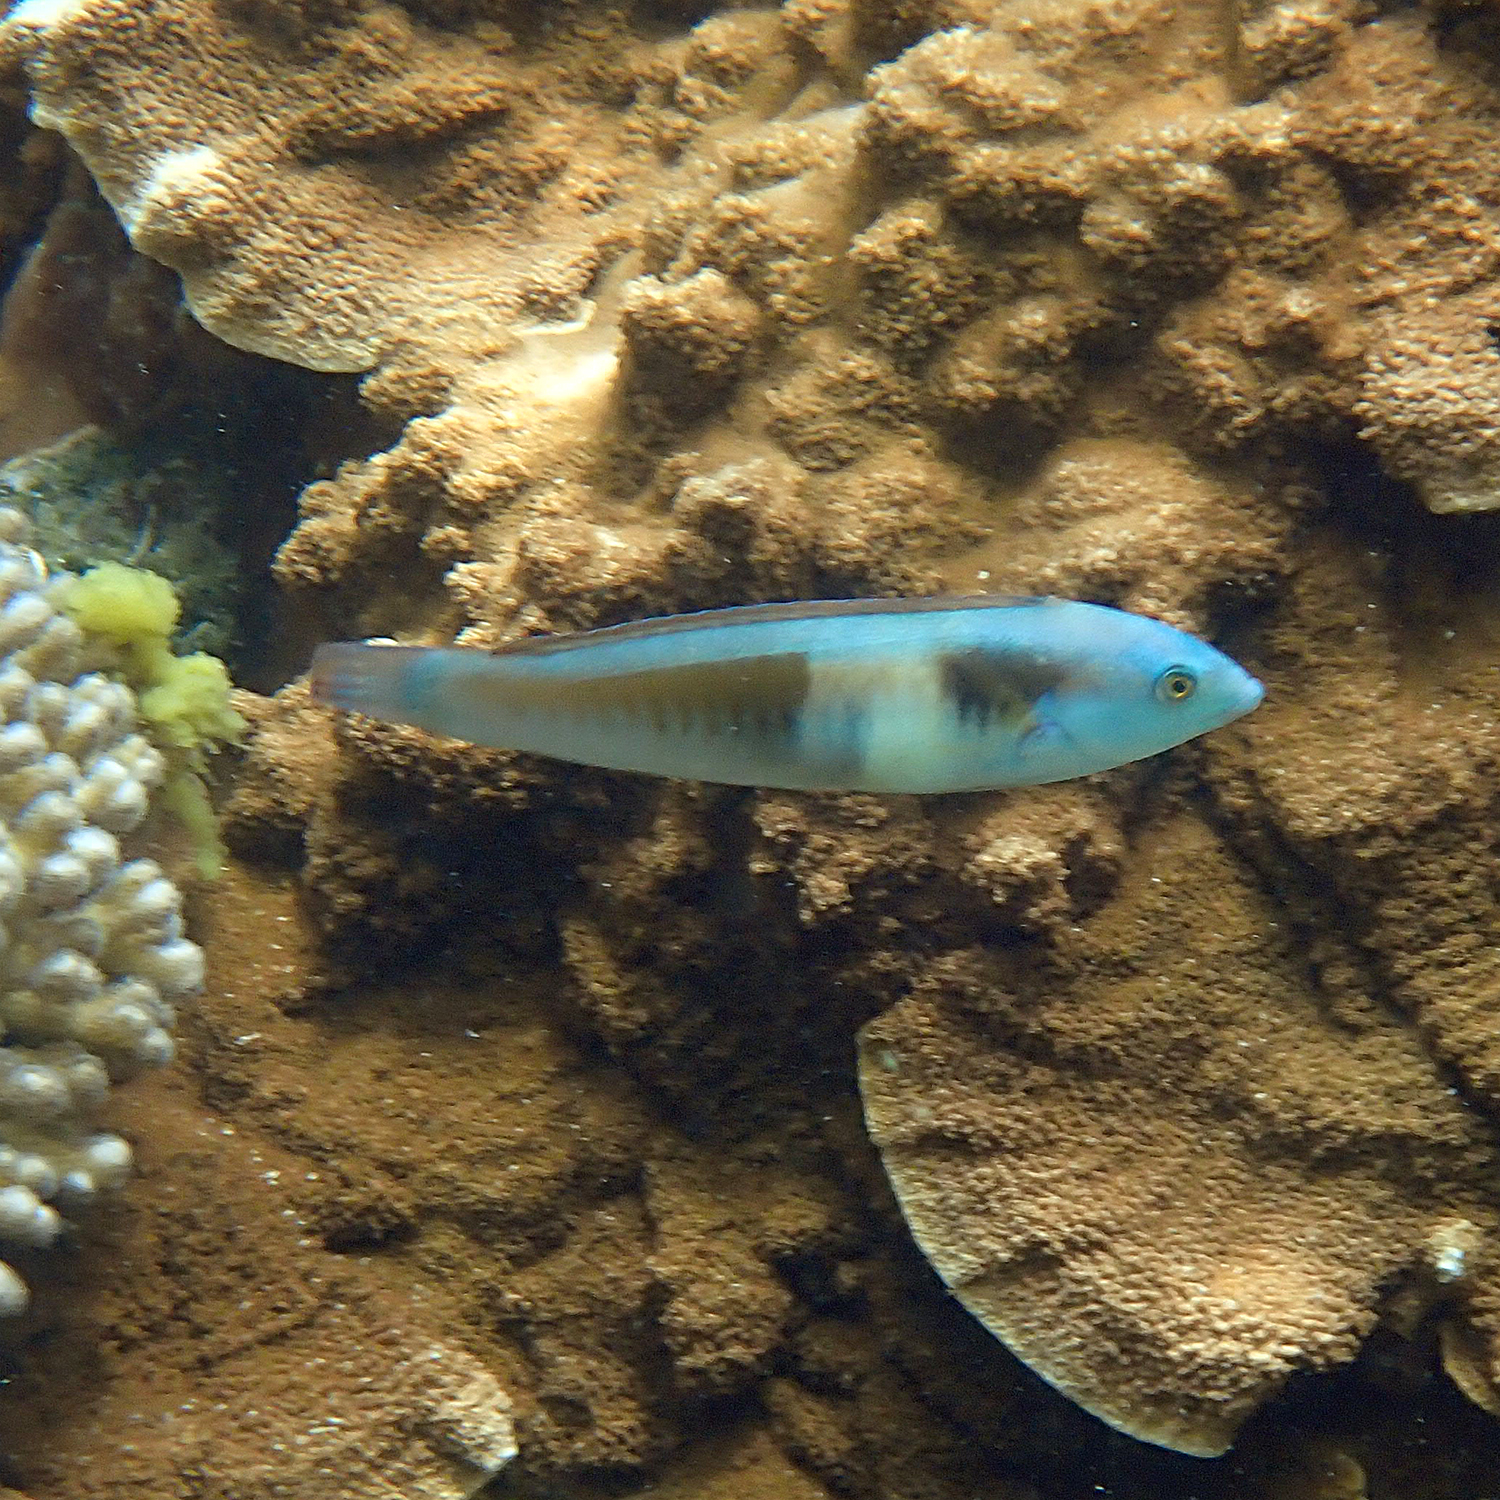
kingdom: Animalia
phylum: Chordata
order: Perciformes
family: Labridae
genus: Coris
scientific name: Coris sandeyeri
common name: Sandager's wrasse
